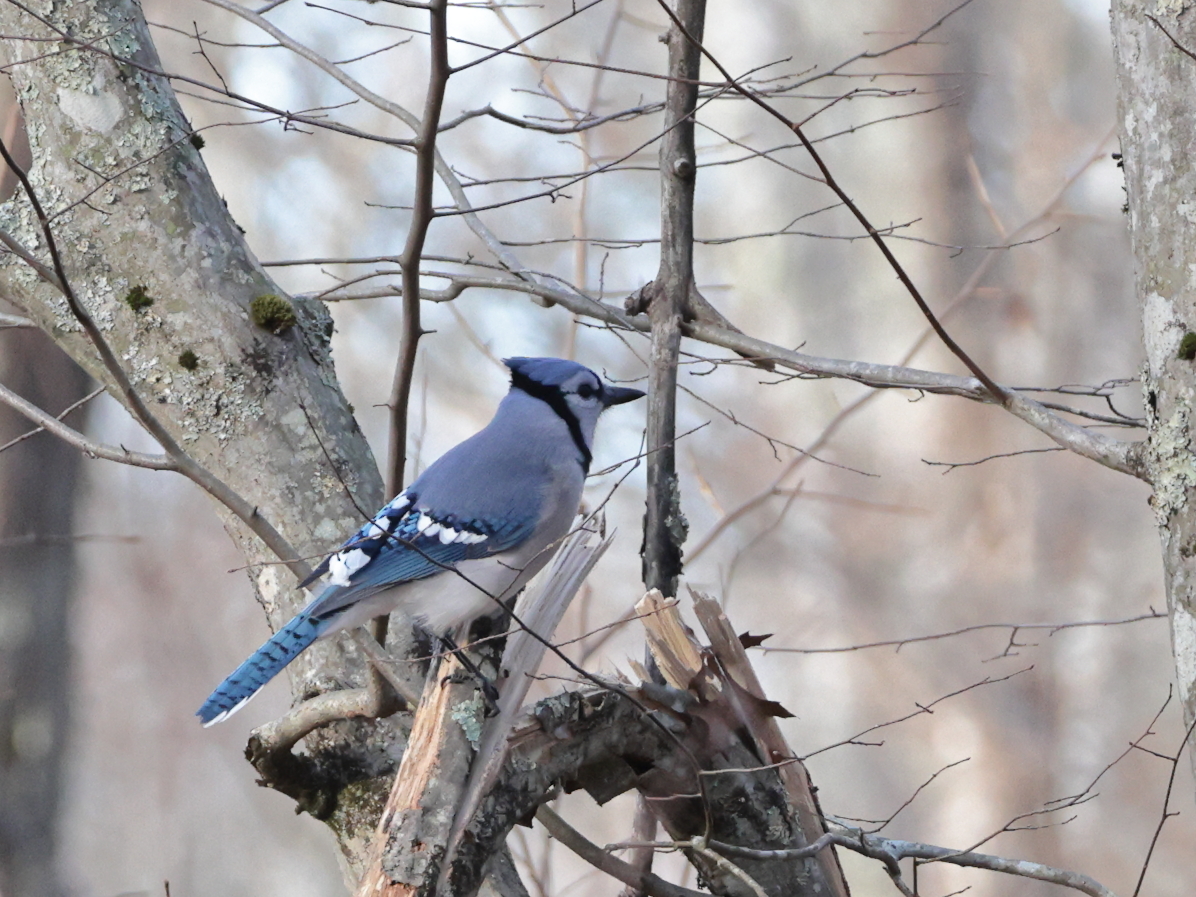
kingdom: Animalia
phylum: Chordata
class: Aves
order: Passeriformes
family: Corvidae
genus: Cyanocitta
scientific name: Cyanocitta cristata
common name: Blue jay
